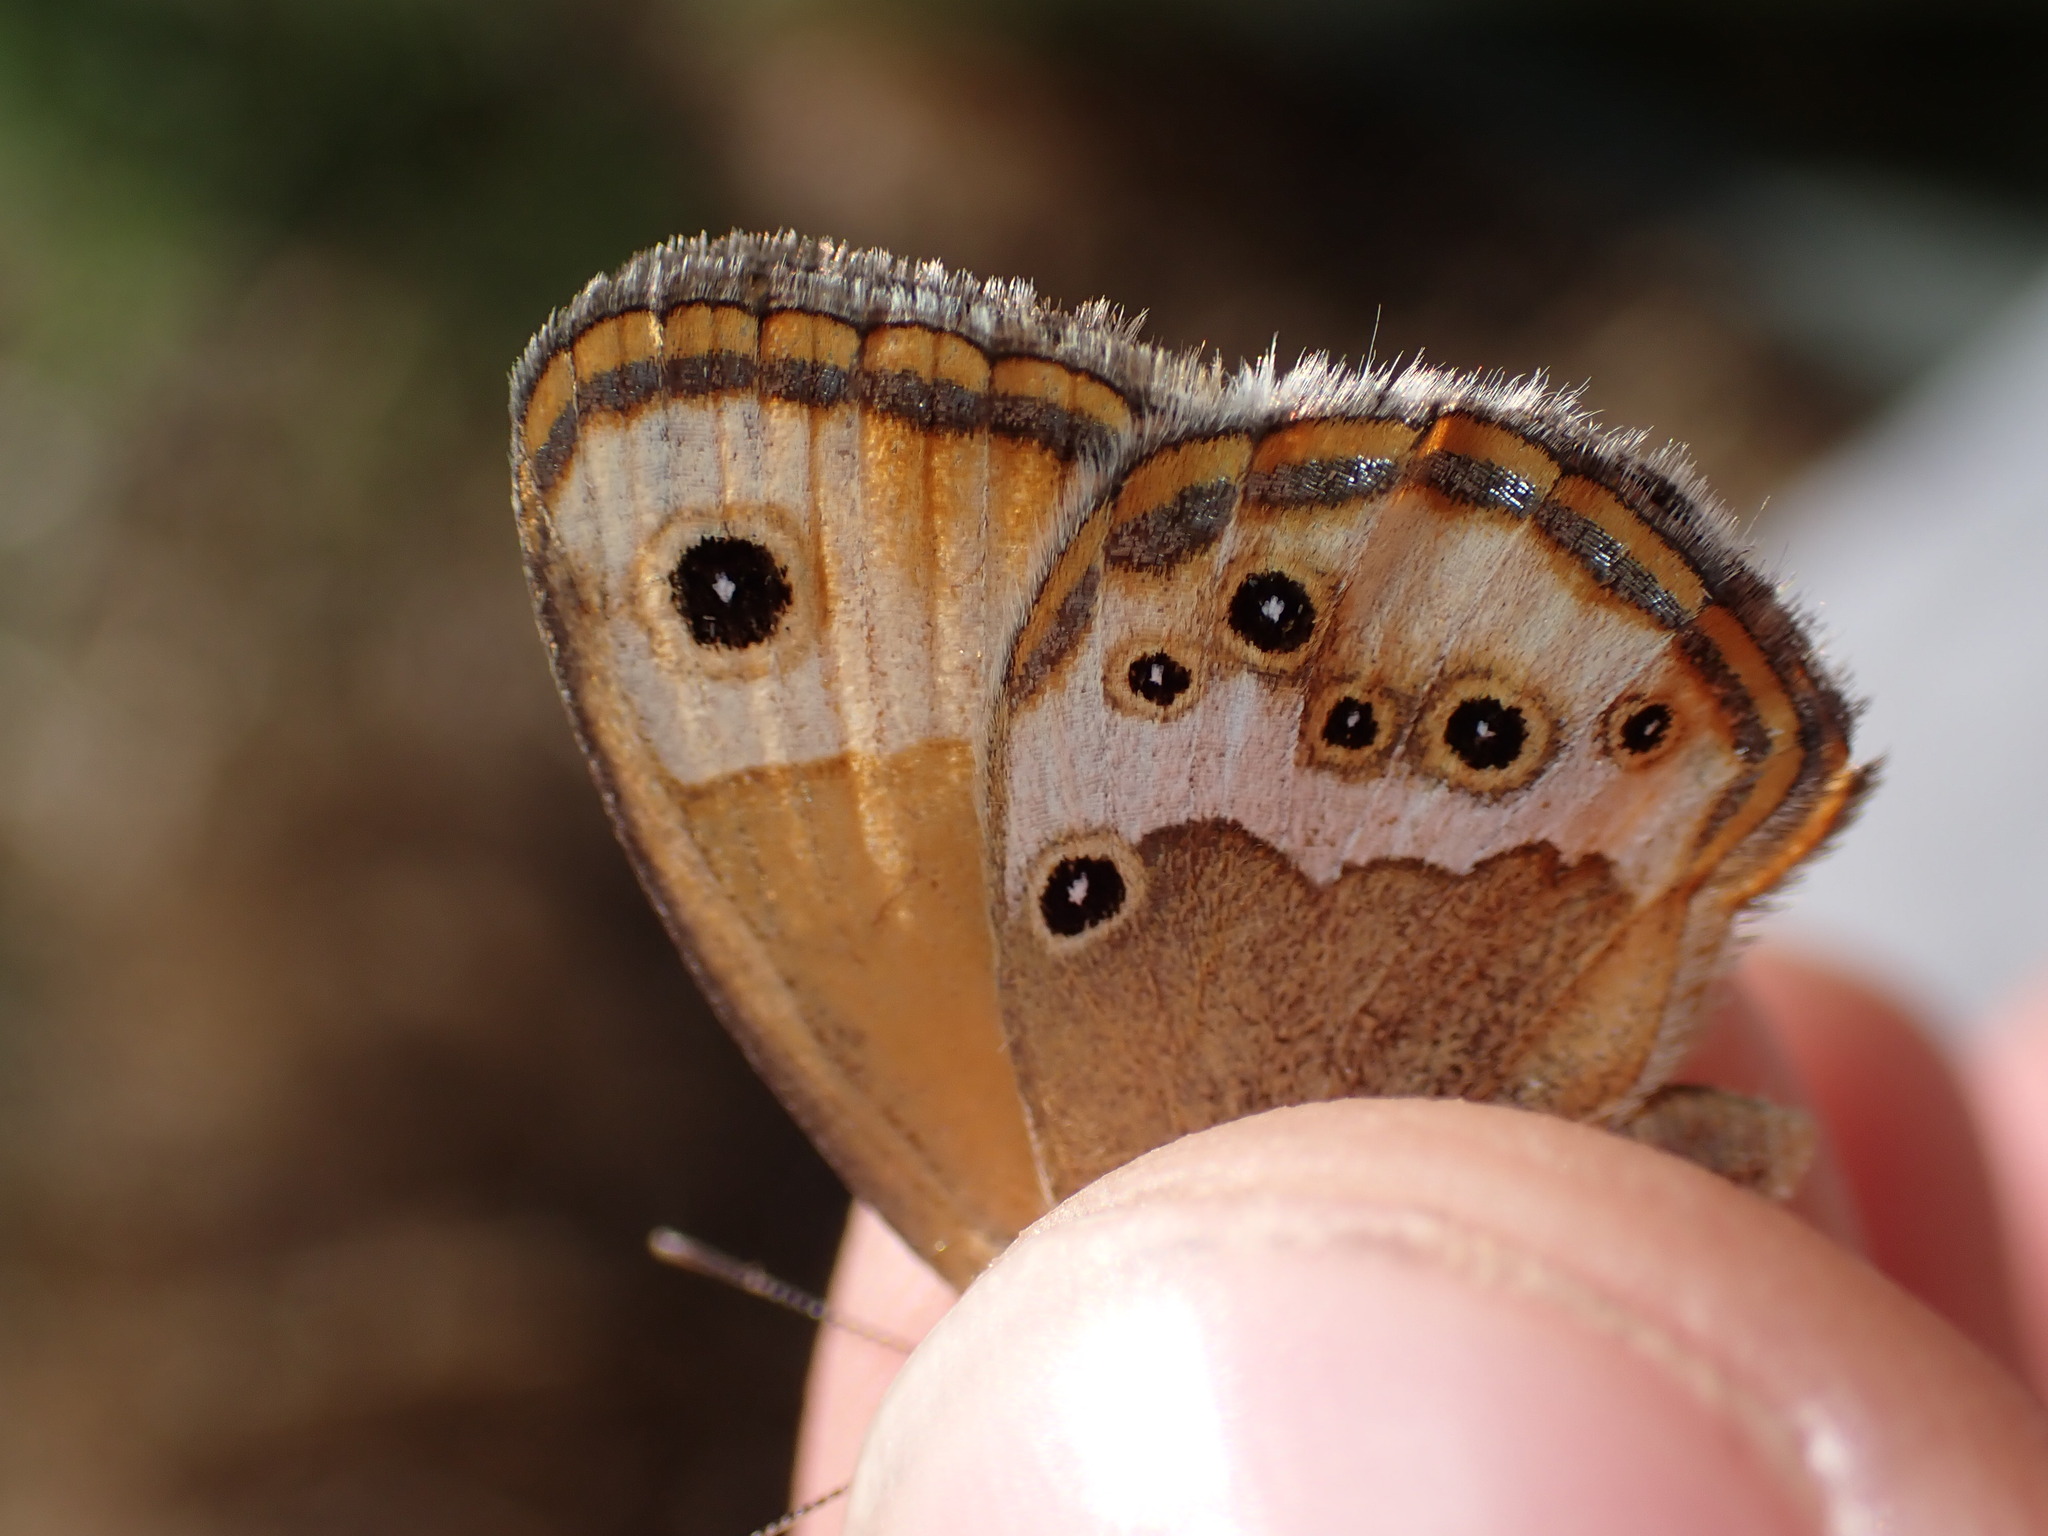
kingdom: Animalia
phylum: Arthropoda
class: Insecta
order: Lepidoptera
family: Nymphalidae
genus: Coenonympha
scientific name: Coenonympha dorus
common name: Dusky heath
